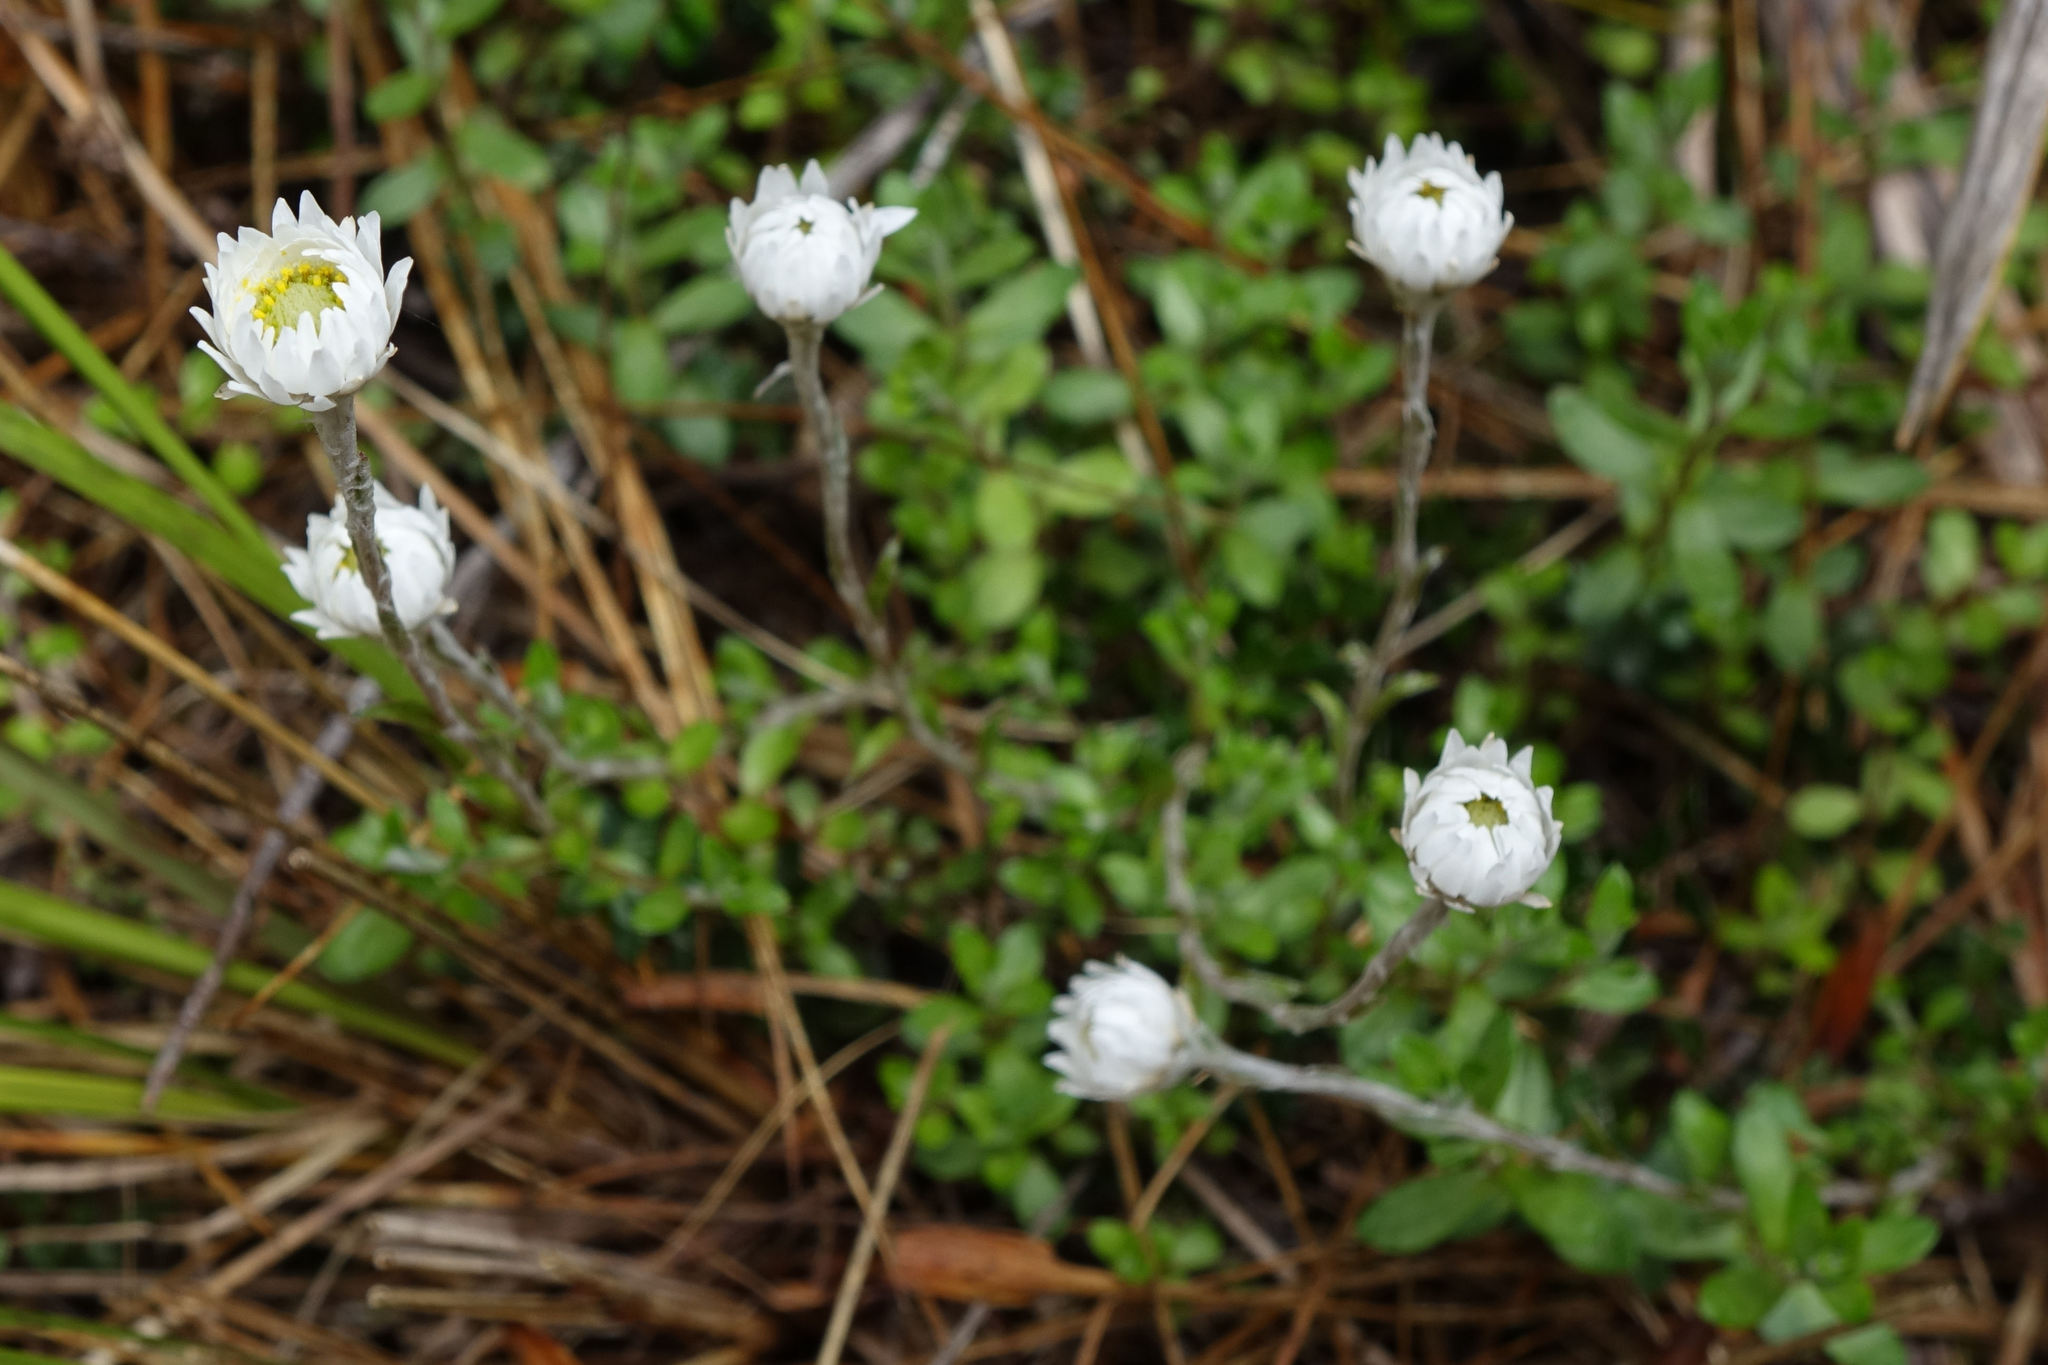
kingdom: Plantae
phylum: Tracheophyta
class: Magnoliopsida
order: Asterales
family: Asteraceae
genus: Anaphalioides
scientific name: Anaphalioides bellidioides
